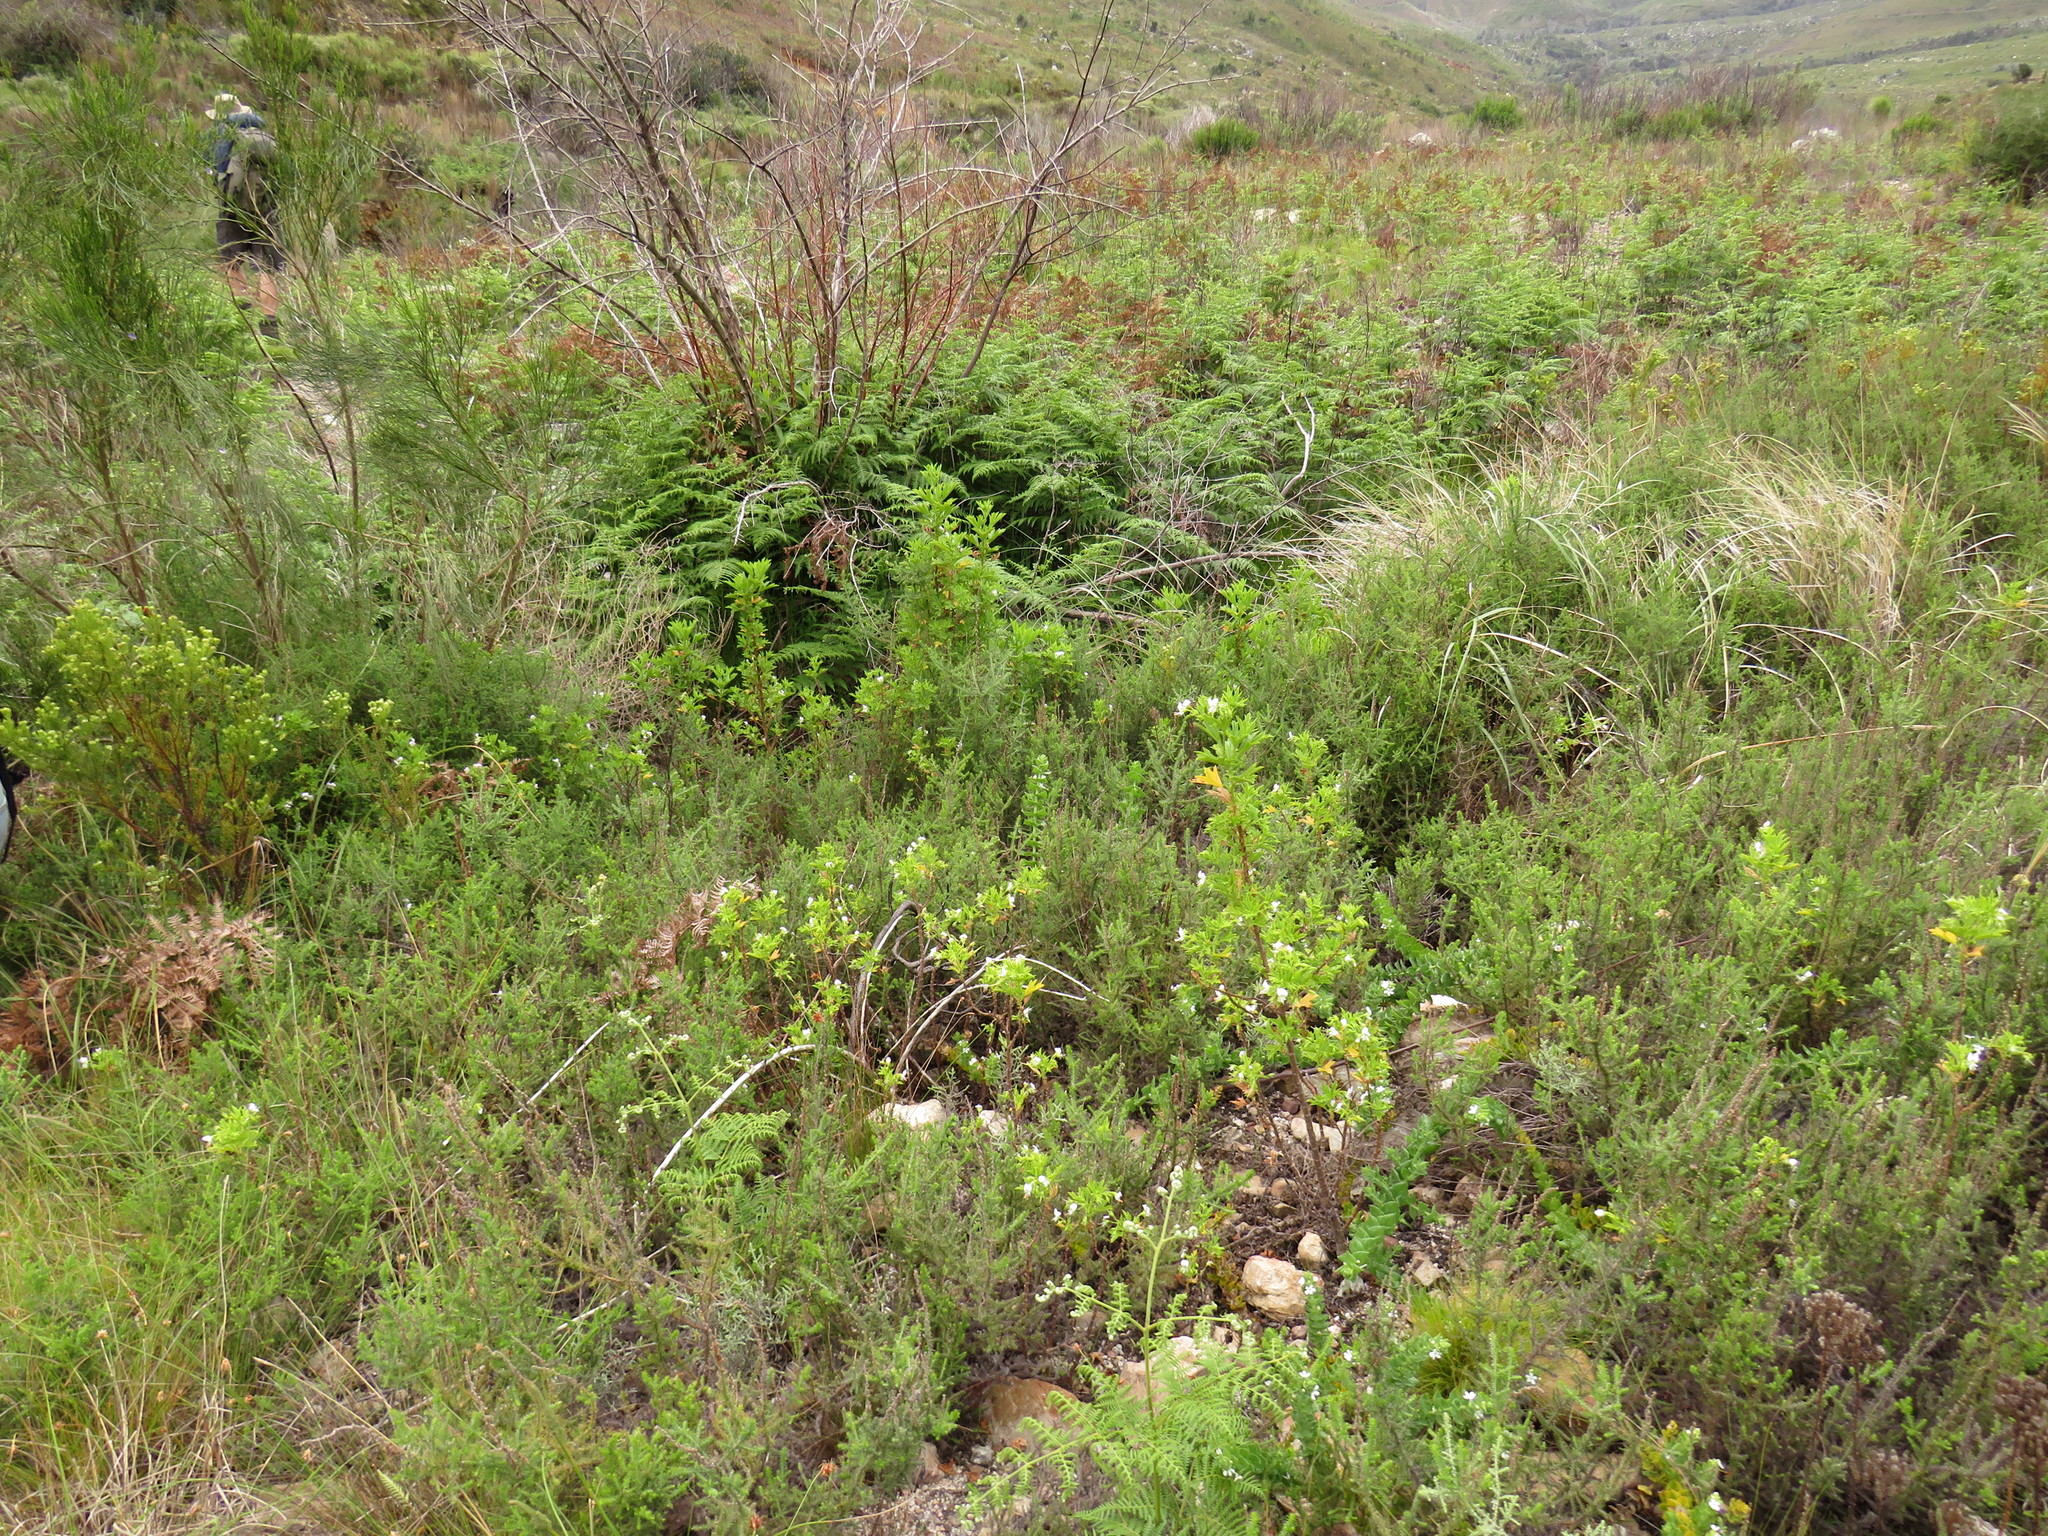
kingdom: Plantae
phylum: Tracheophyta
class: Magnoliopsida
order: Geraniales
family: Geraniaceae
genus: Pelargonium
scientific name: Pelargonium scabrum
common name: Apricot geranium
